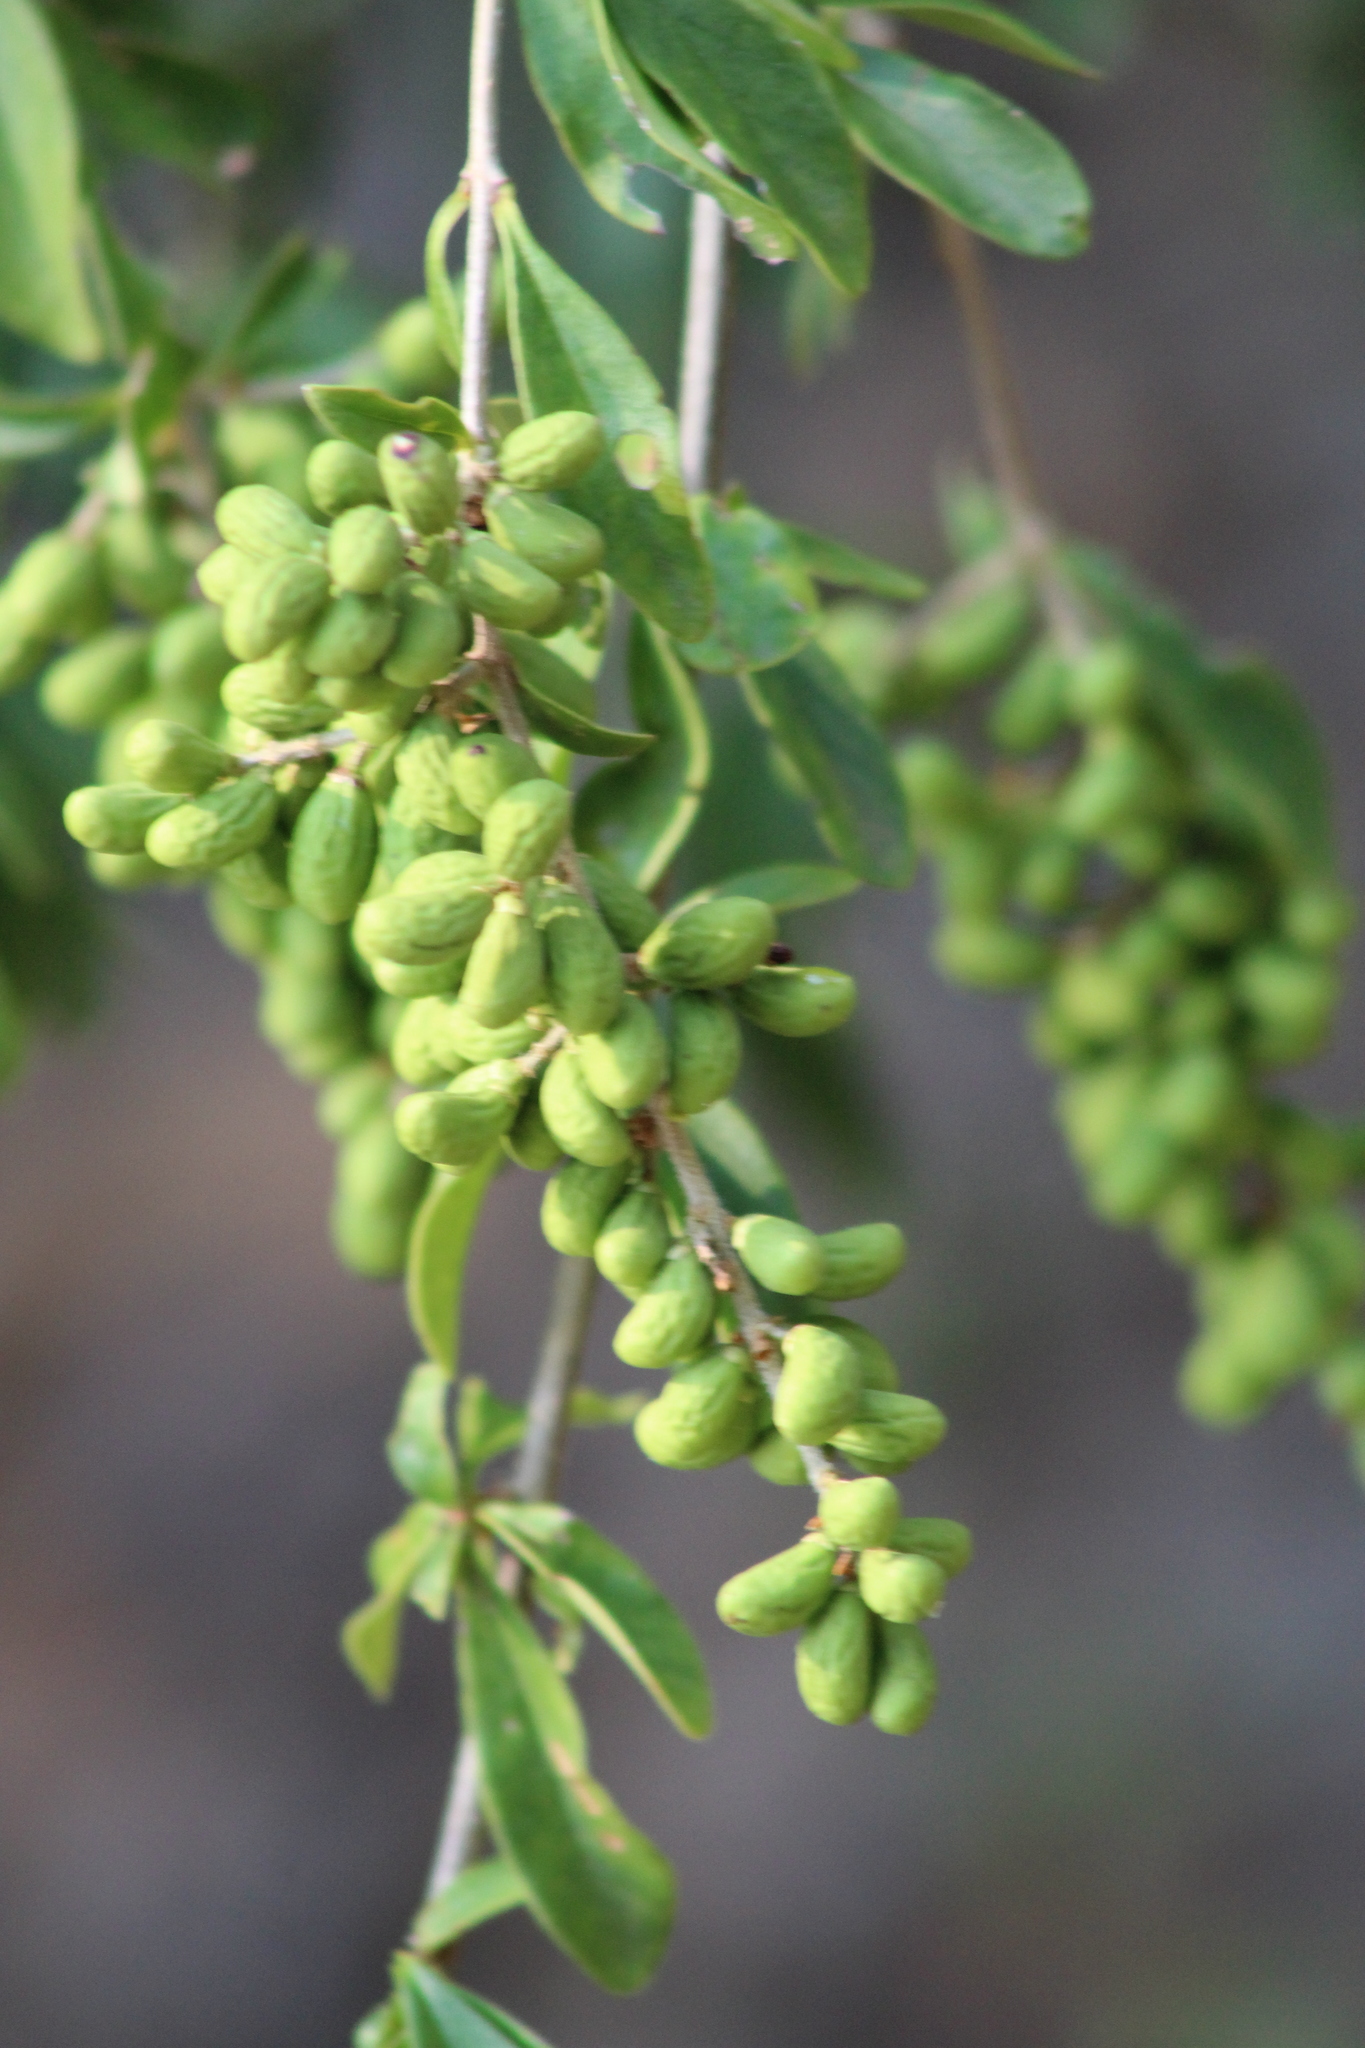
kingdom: Plantae
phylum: Tracheophyta
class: Magnoliopsida
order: Lamiales
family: Oleaceae
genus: Ligustrum
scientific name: Ligustrum quihoui
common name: Waxyleaf privet
